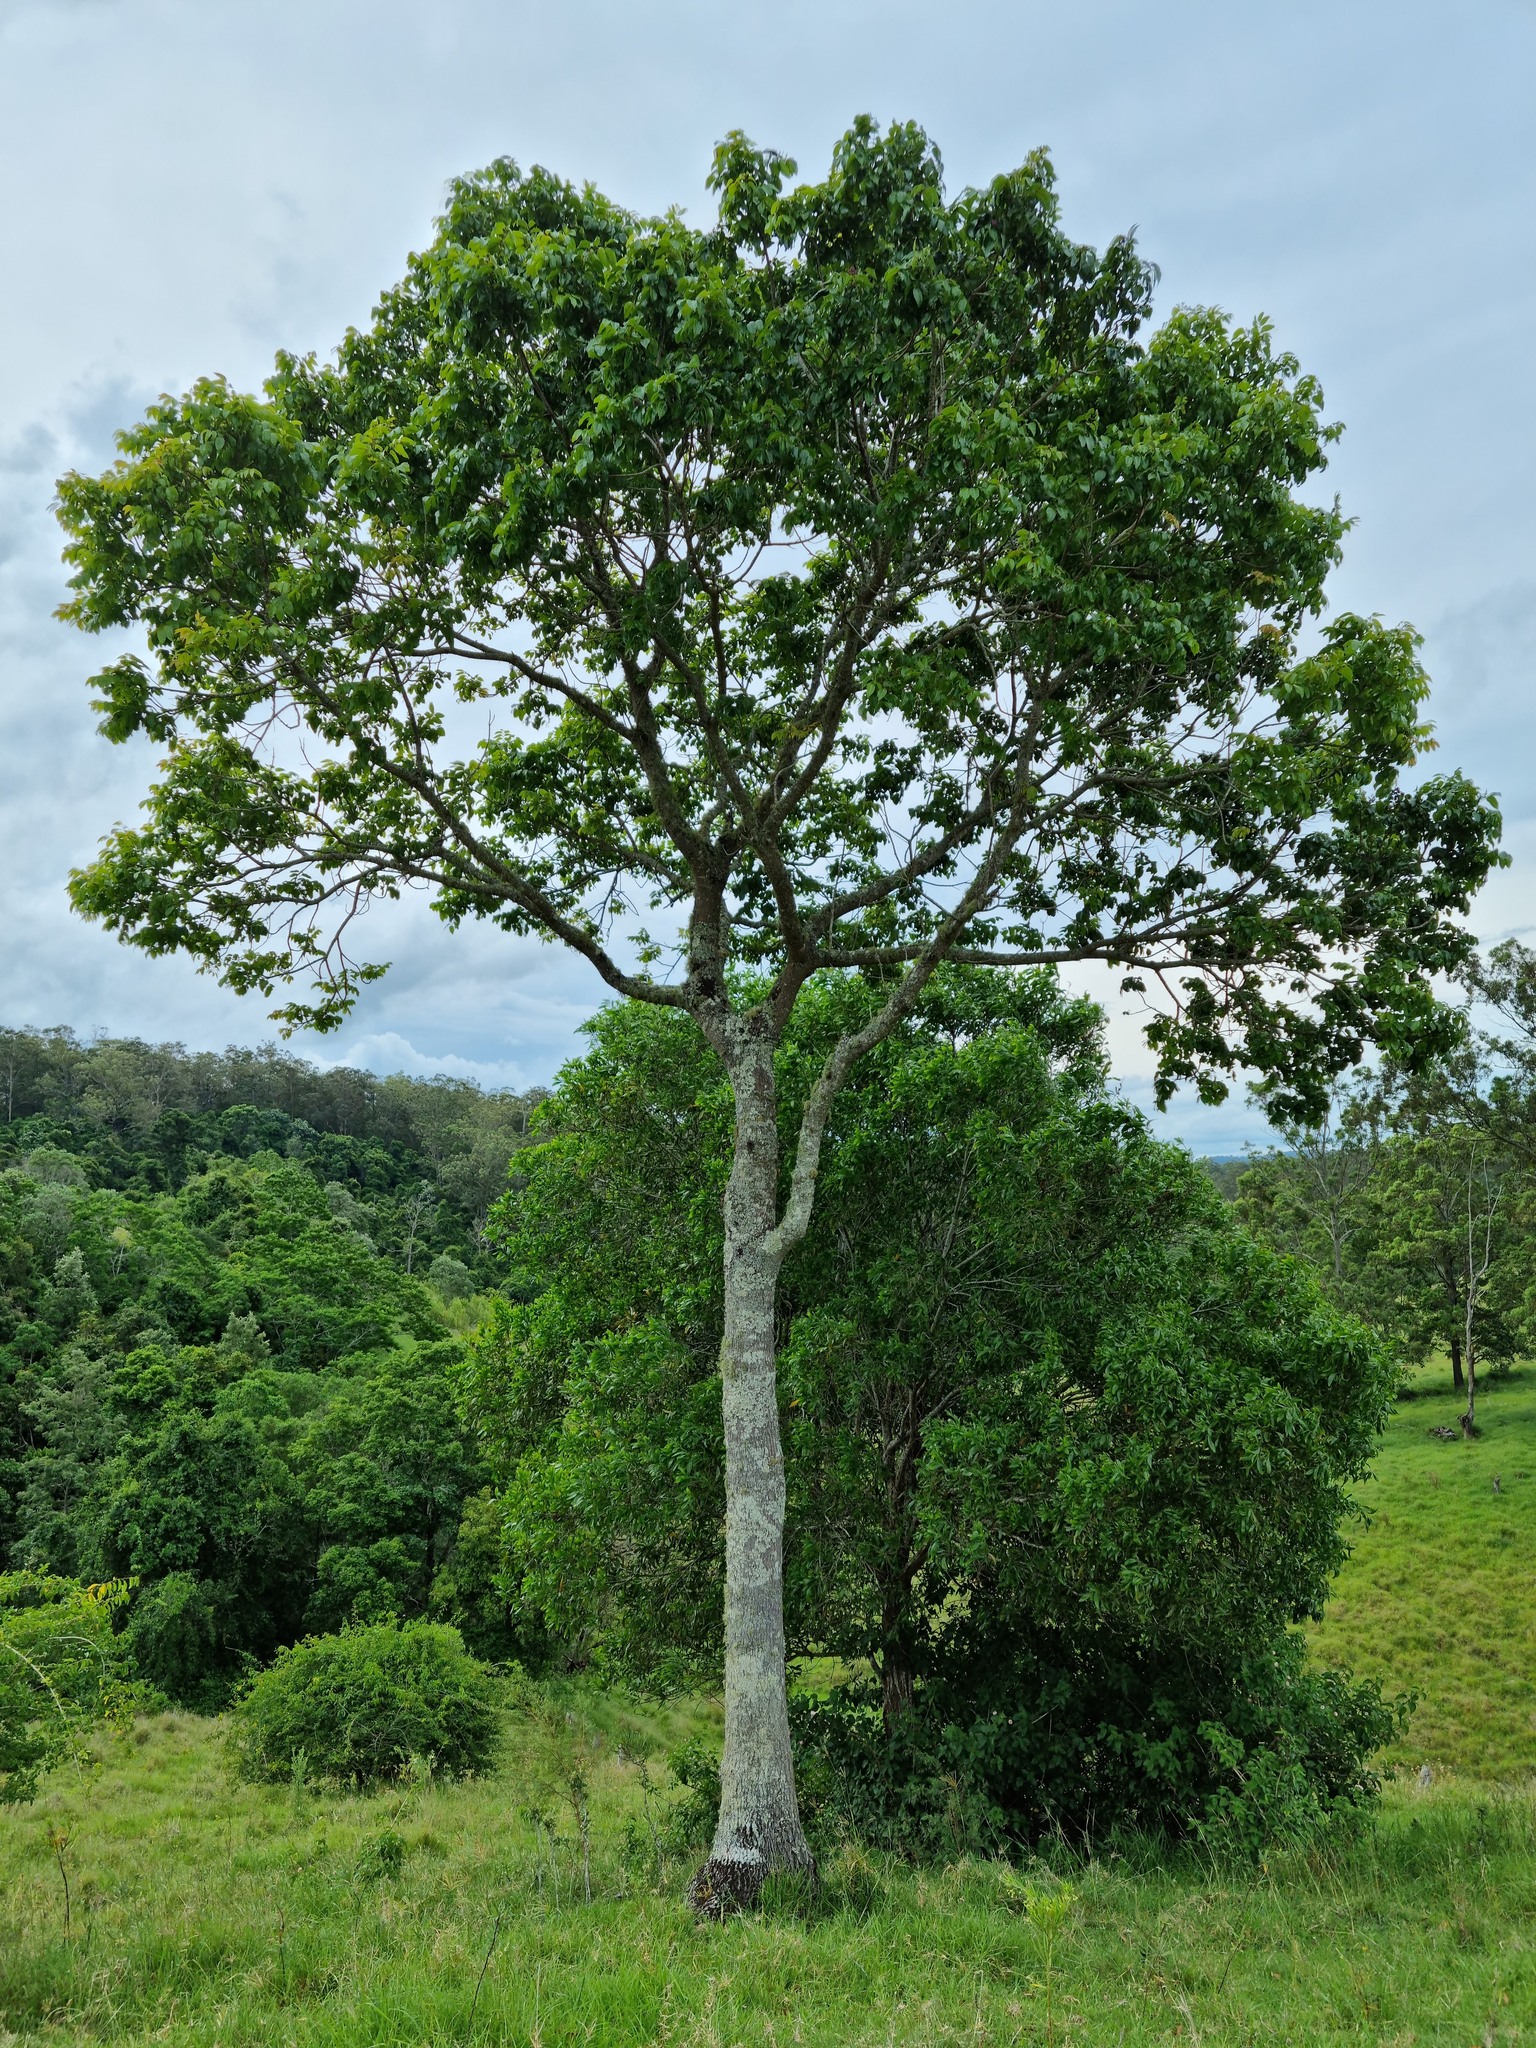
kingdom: Plantae
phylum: Tracheophyta
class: Magnoliopsida
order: Sapindales
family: Anacardiaceae
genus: Euroschinus
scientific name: Euroschinus falcatus
